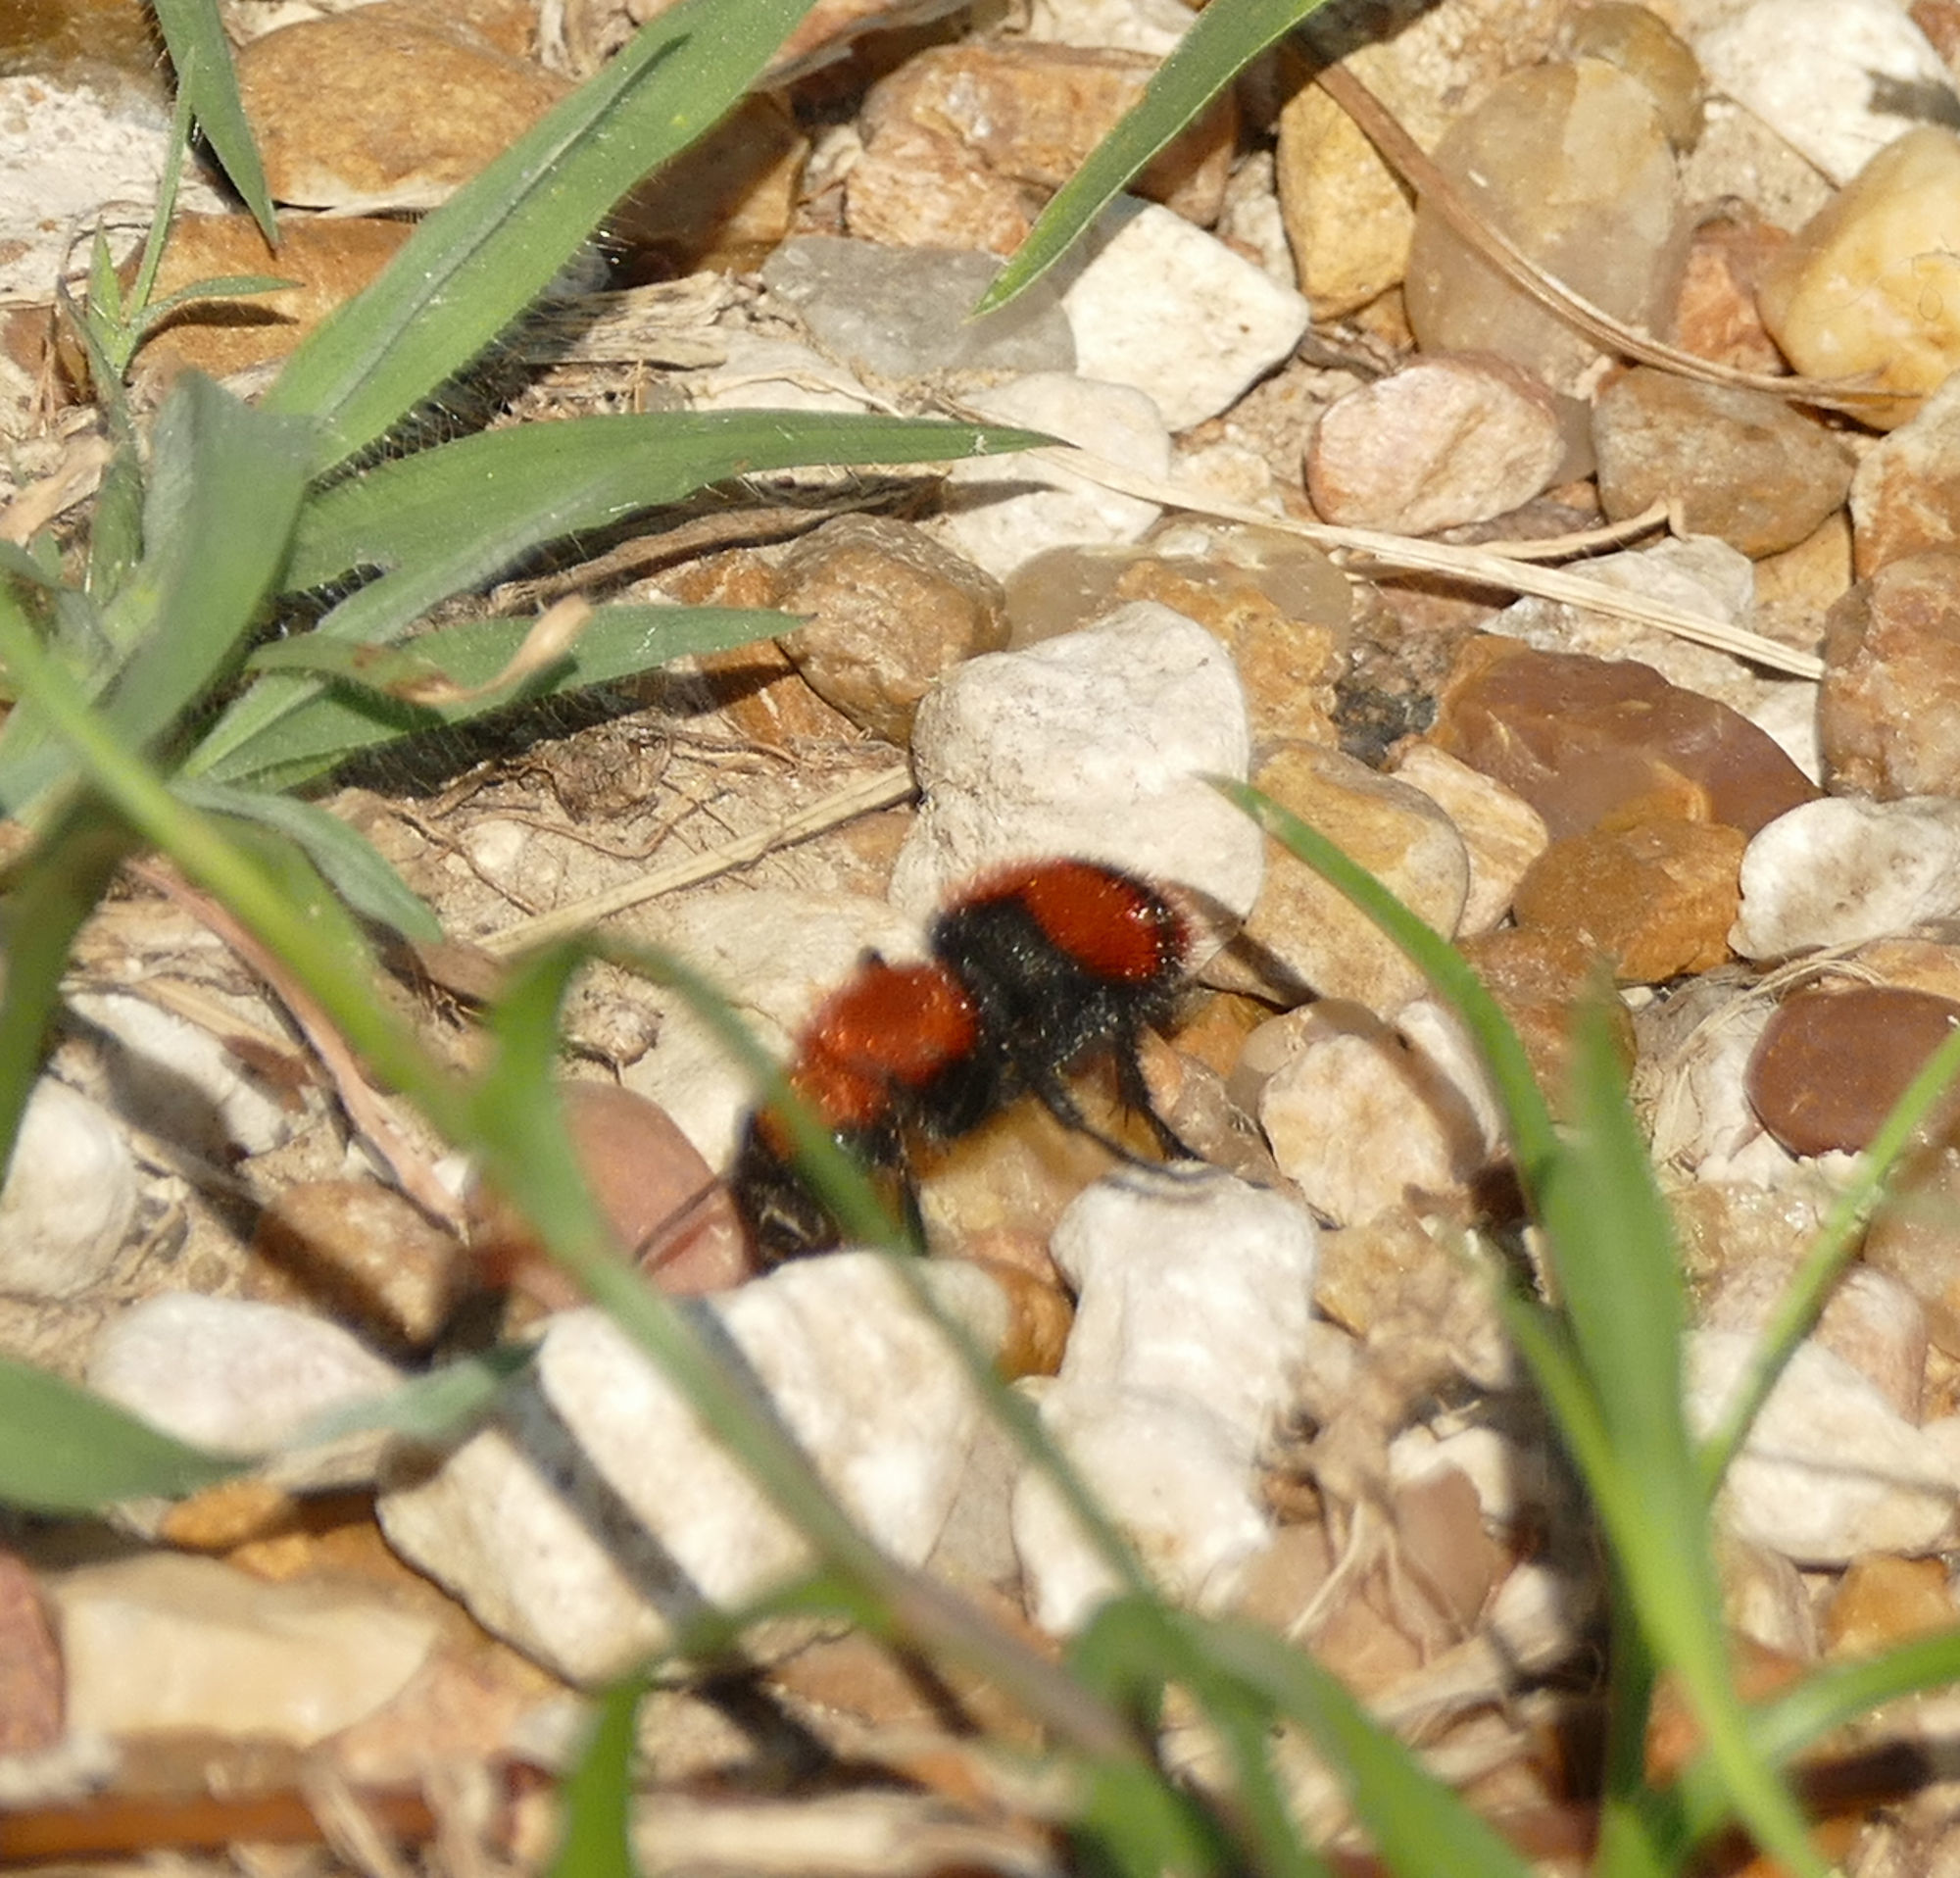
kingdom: Animalia
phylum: Arthropoda
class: Insecta
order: Hymenoptera
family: Mutillidae
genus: Dasymutilla
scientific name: Dasymutilla occidentalis
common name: Common eastern velvet ant
